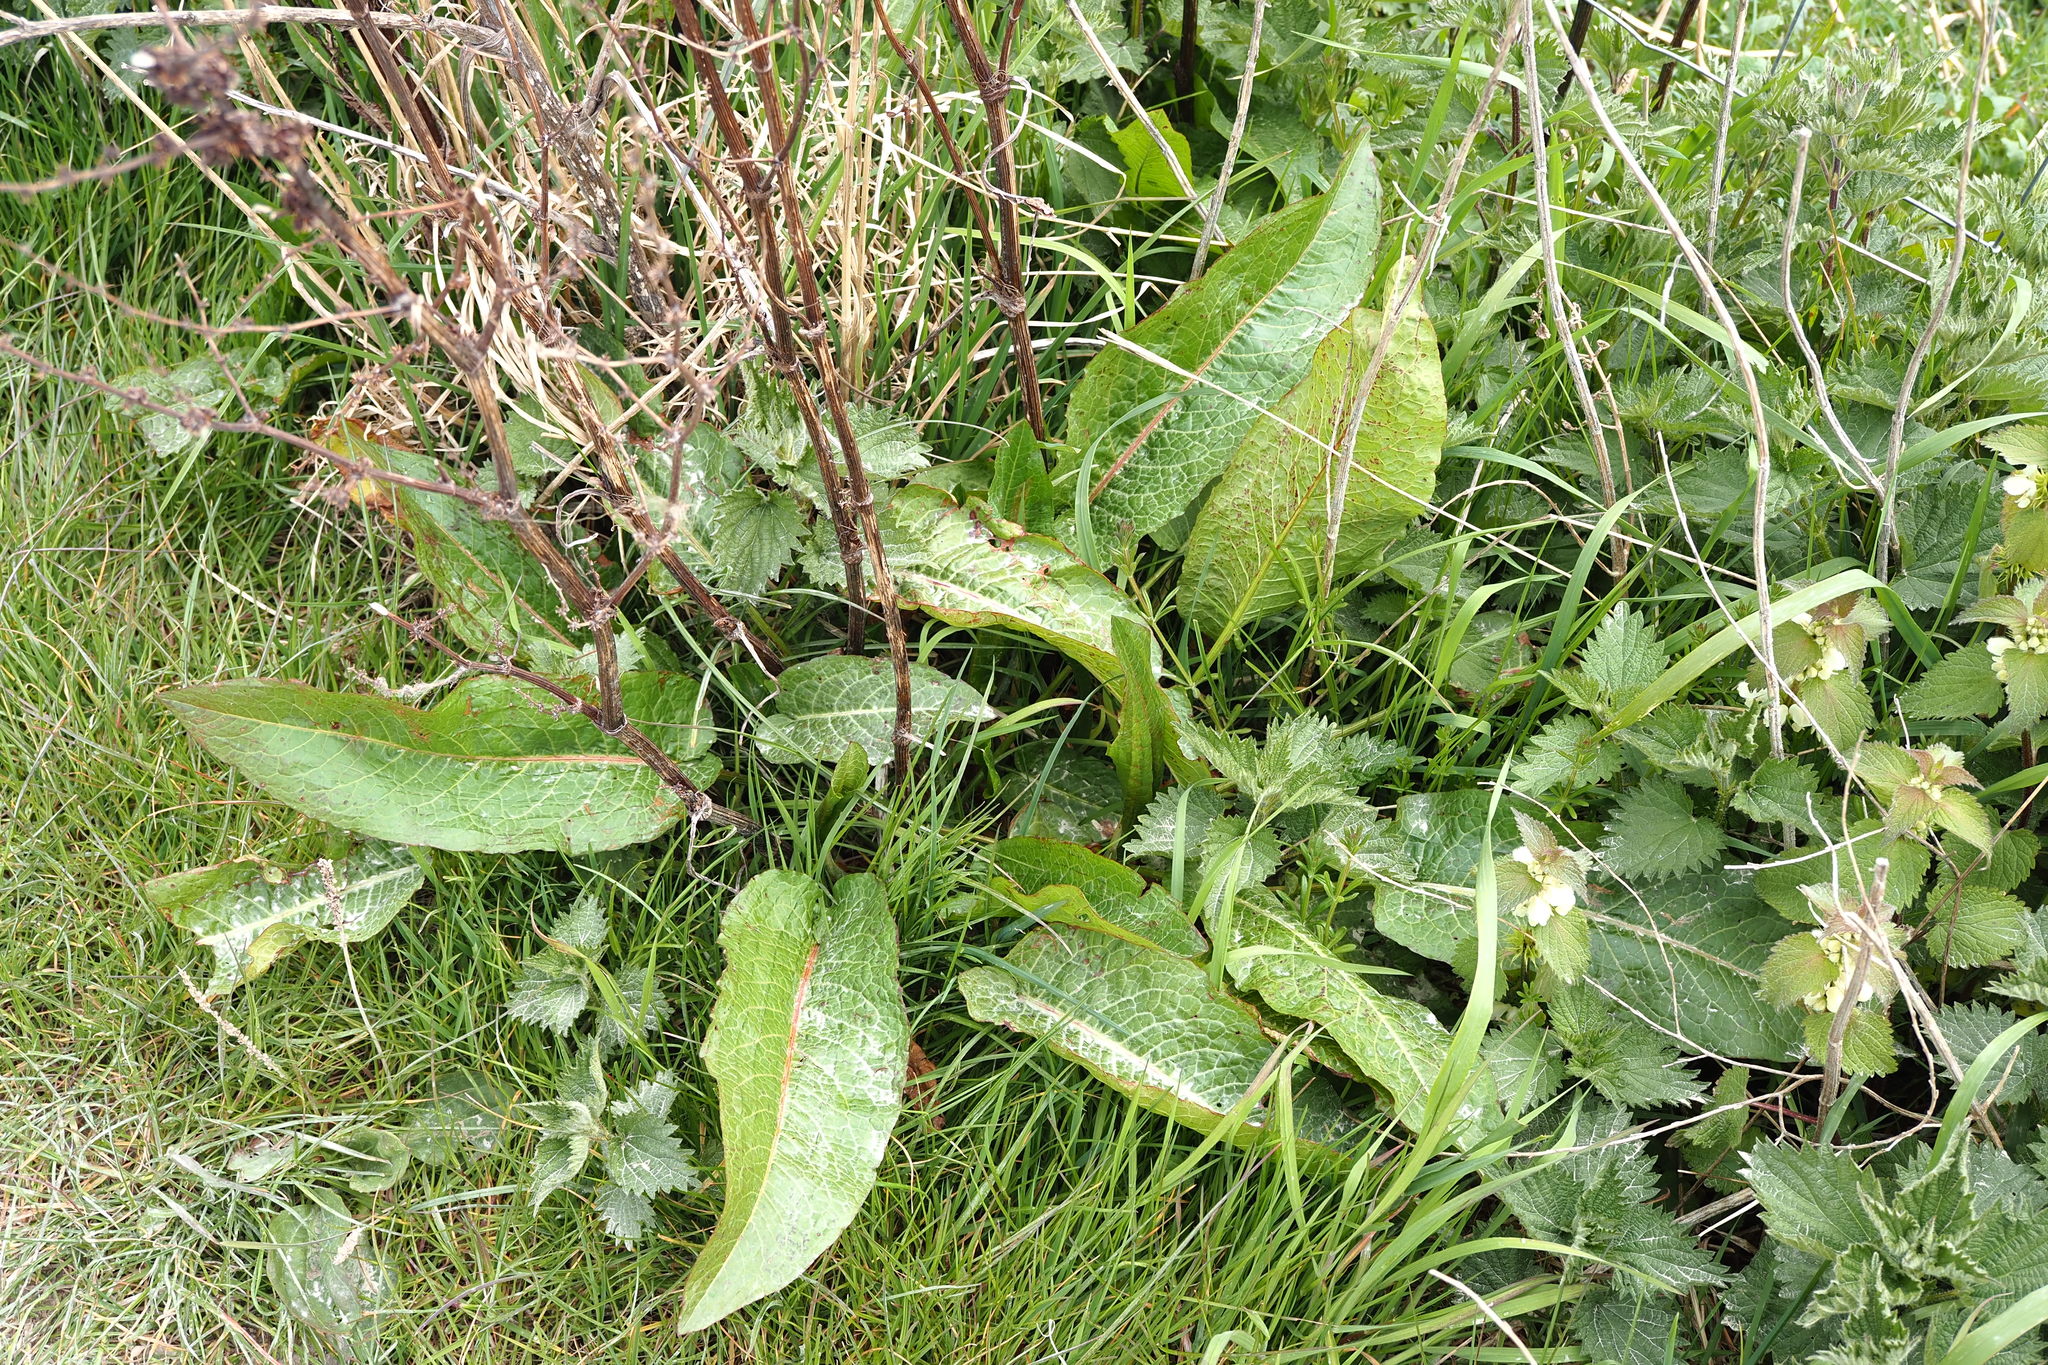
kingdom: Plantae
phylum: Tracheophyta
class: Magnoliopsida
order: Caryophyllales
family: Polygonaceae
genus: Rumex
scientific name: Rumex obtusifolius
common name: Bitter dock
